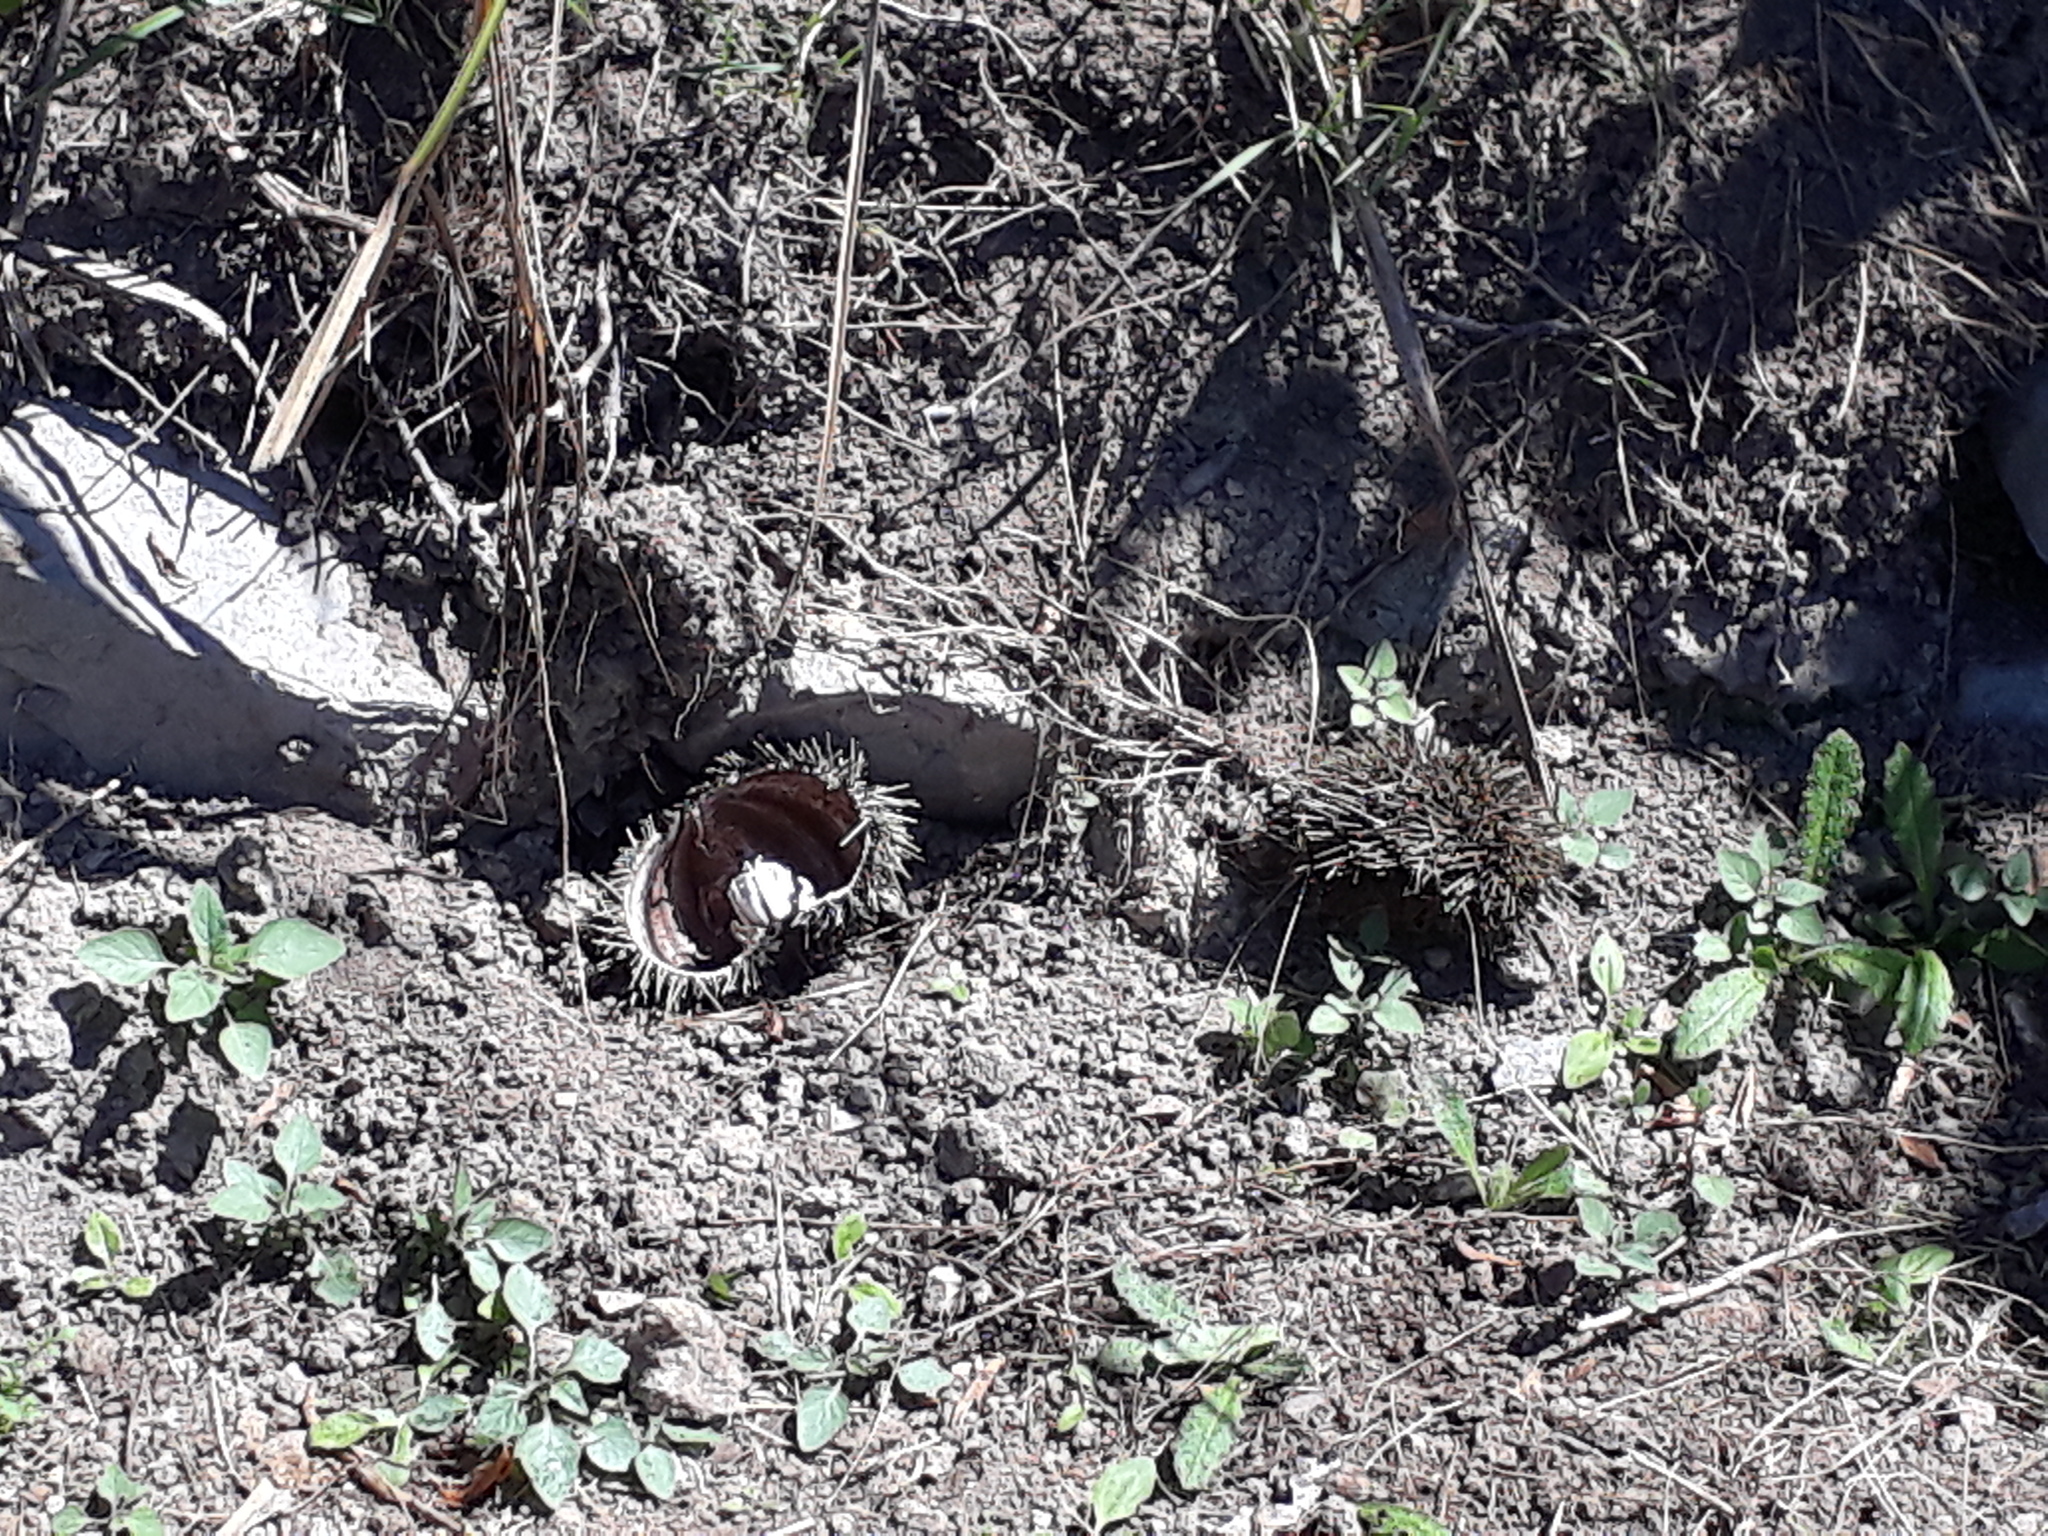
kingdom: Animalia
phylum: Echinodermata
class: Echinoidea
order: Camarodonta
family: Echinometridae
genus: Evechinus
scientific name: Evechinus chloroticus
